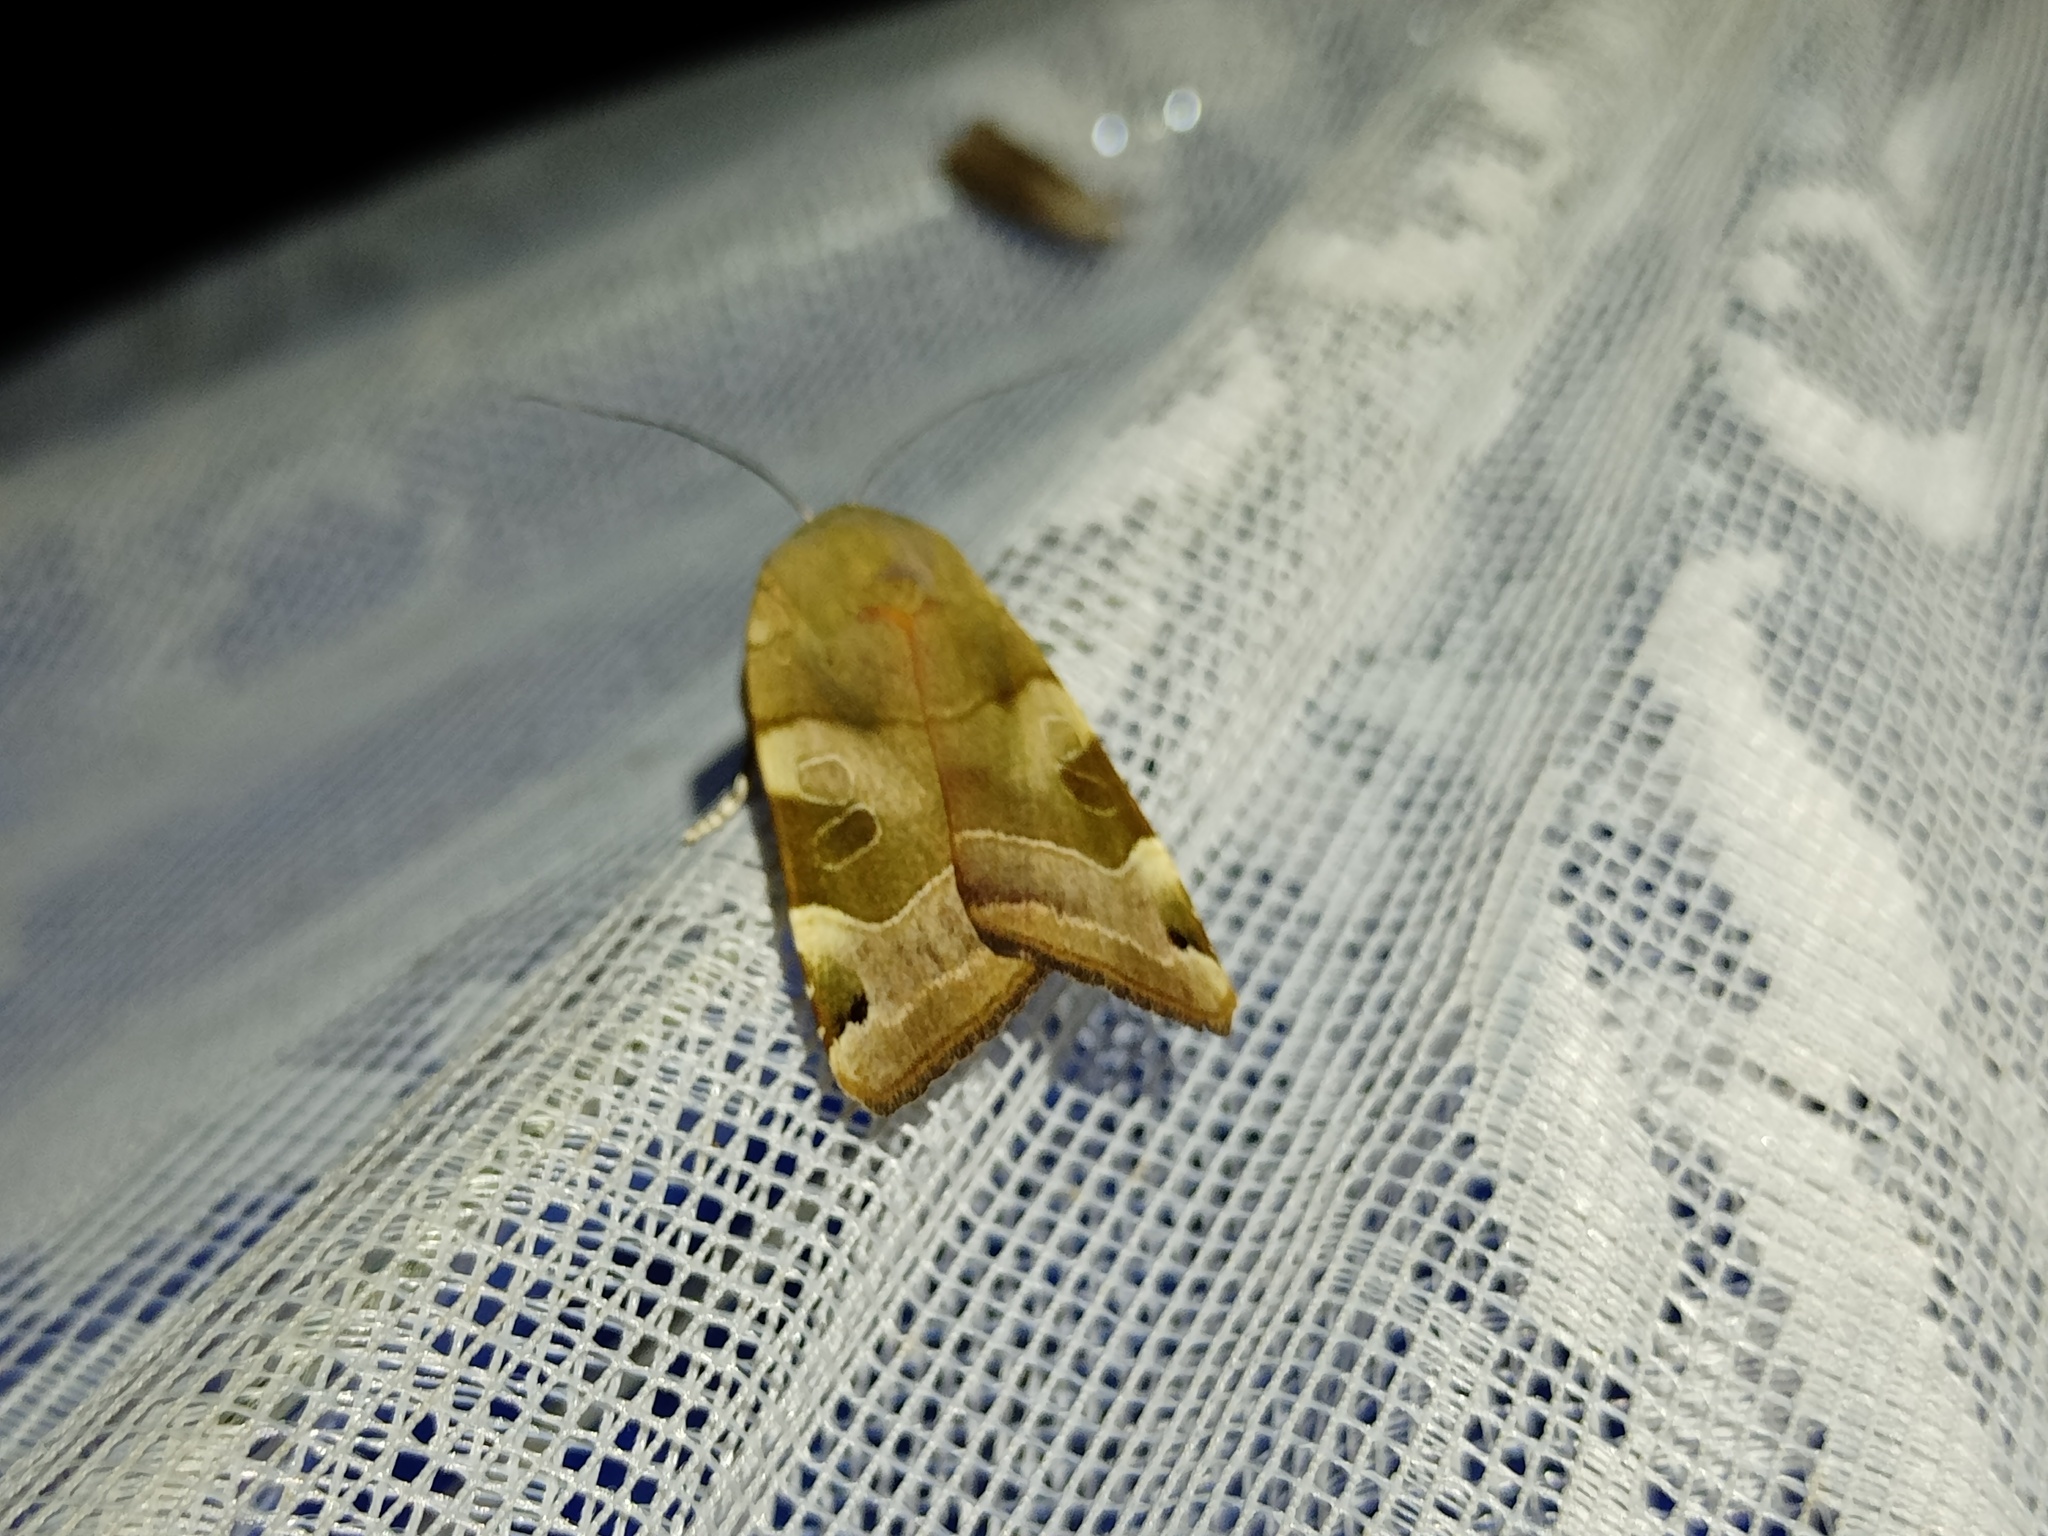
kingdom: Animalia
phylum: Arthropoda
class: Insecta
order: Lepidoptera
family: Noctuidae
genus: Noctua
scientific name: Noctua fimbriata
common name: Broad-bordered yellow underwing
